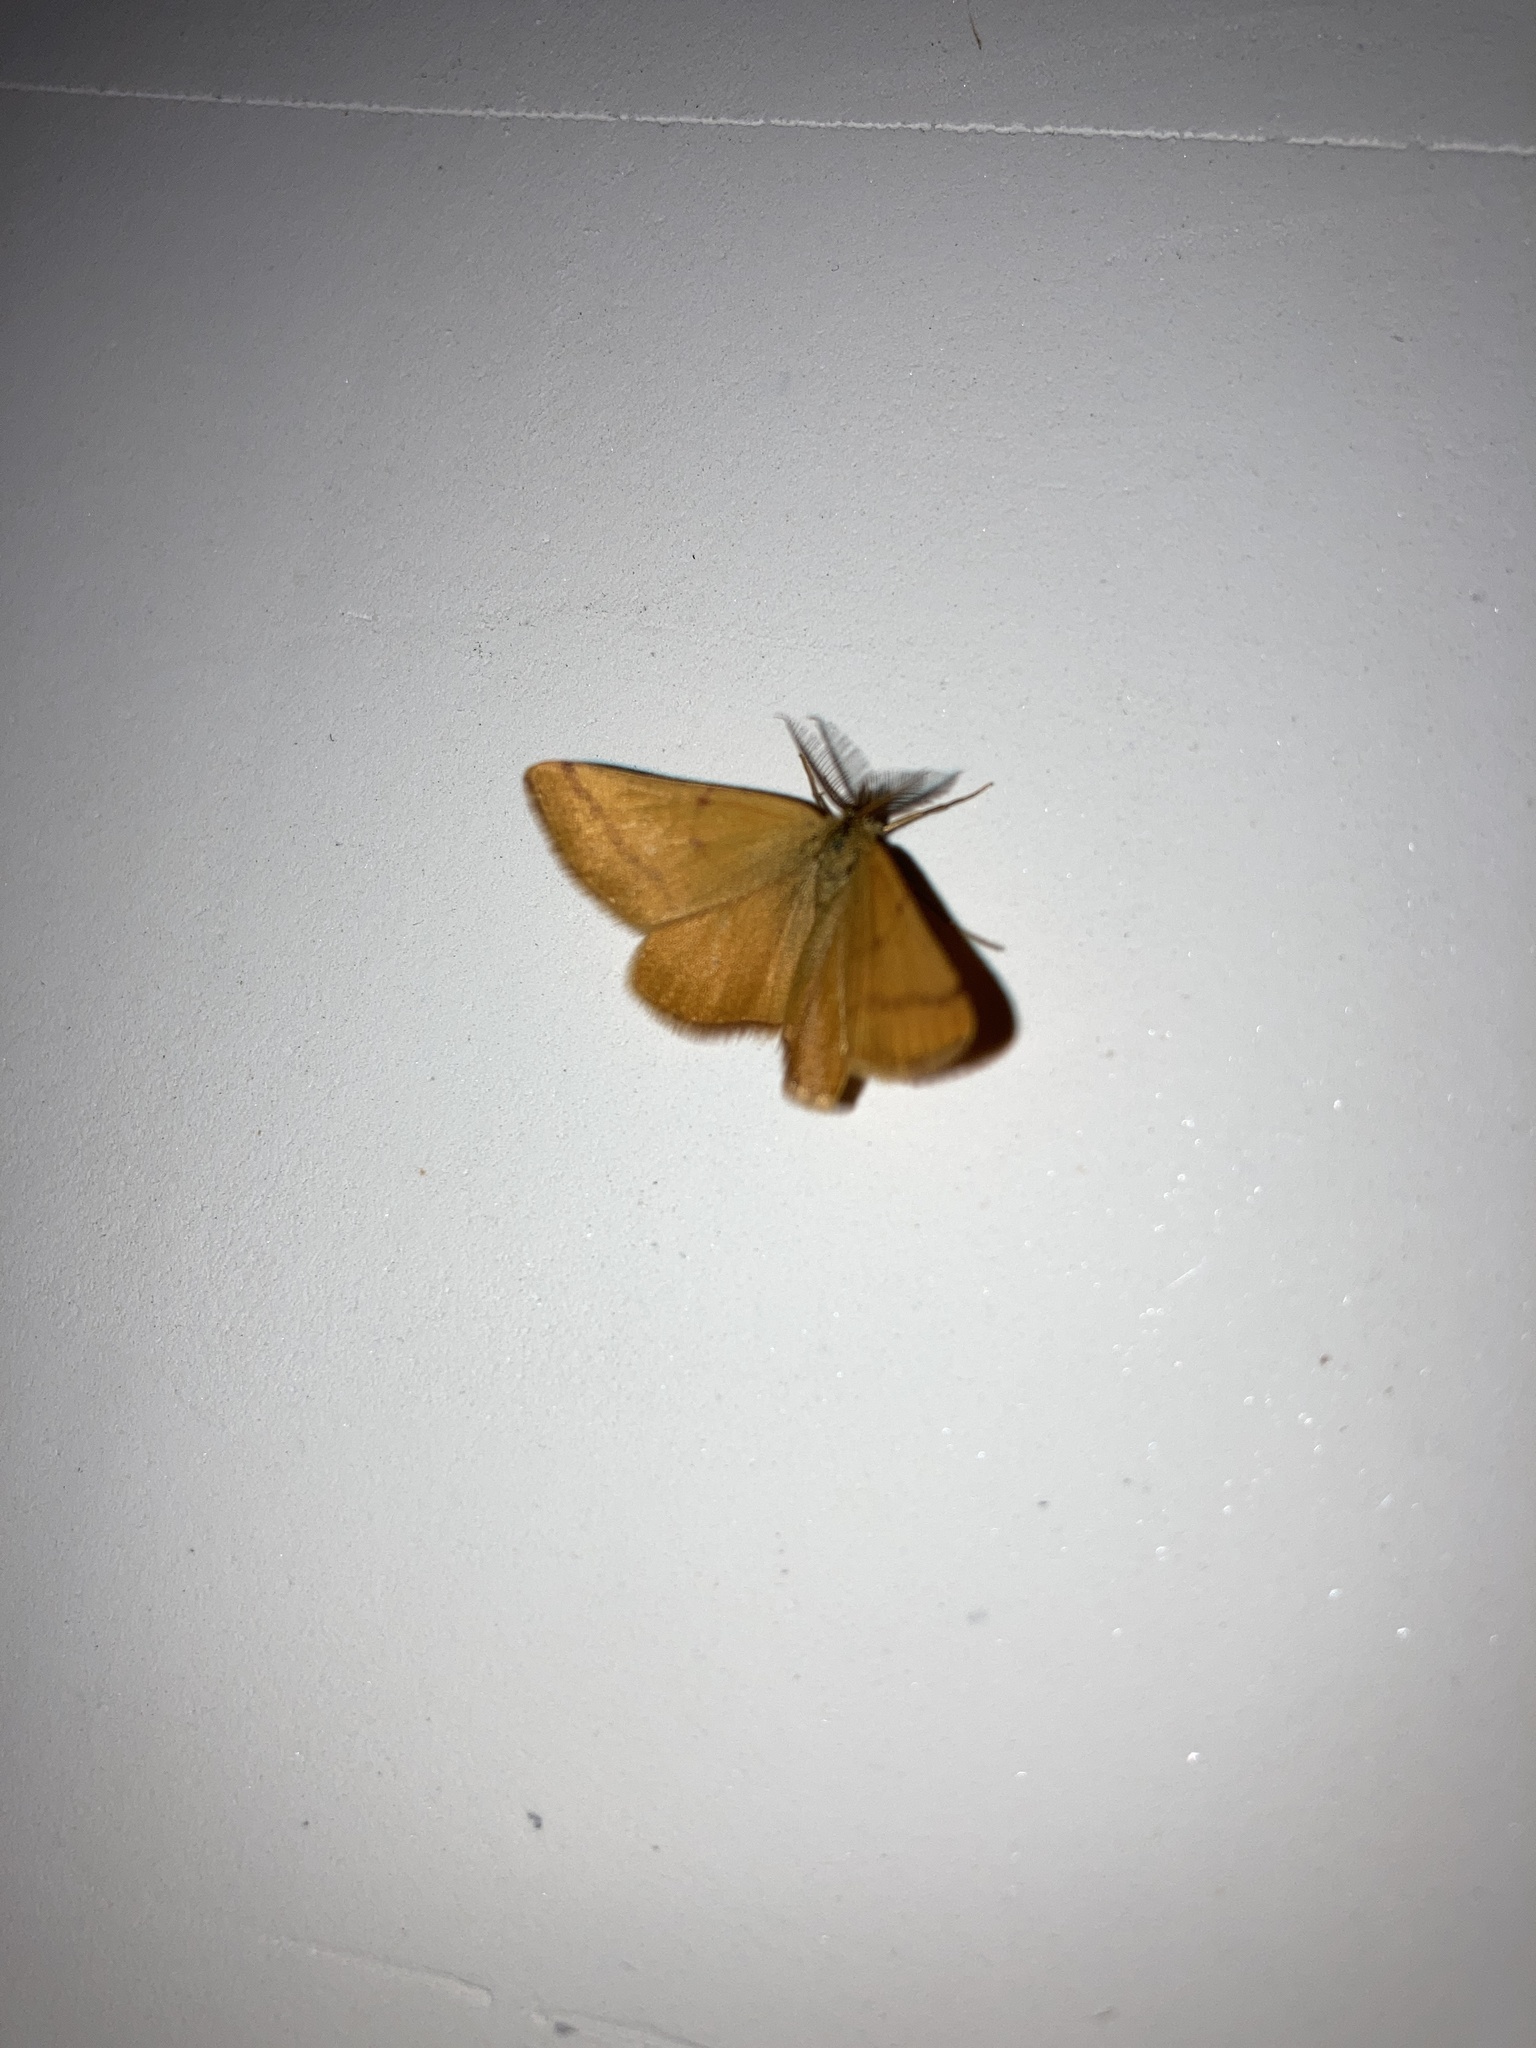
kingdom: Animalia
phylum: Arthropoda
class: Insecta
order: Lepidoptera
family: Geometridae
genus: Lythria
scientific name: Lythria purpuraria
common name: Purple-barred yellow
